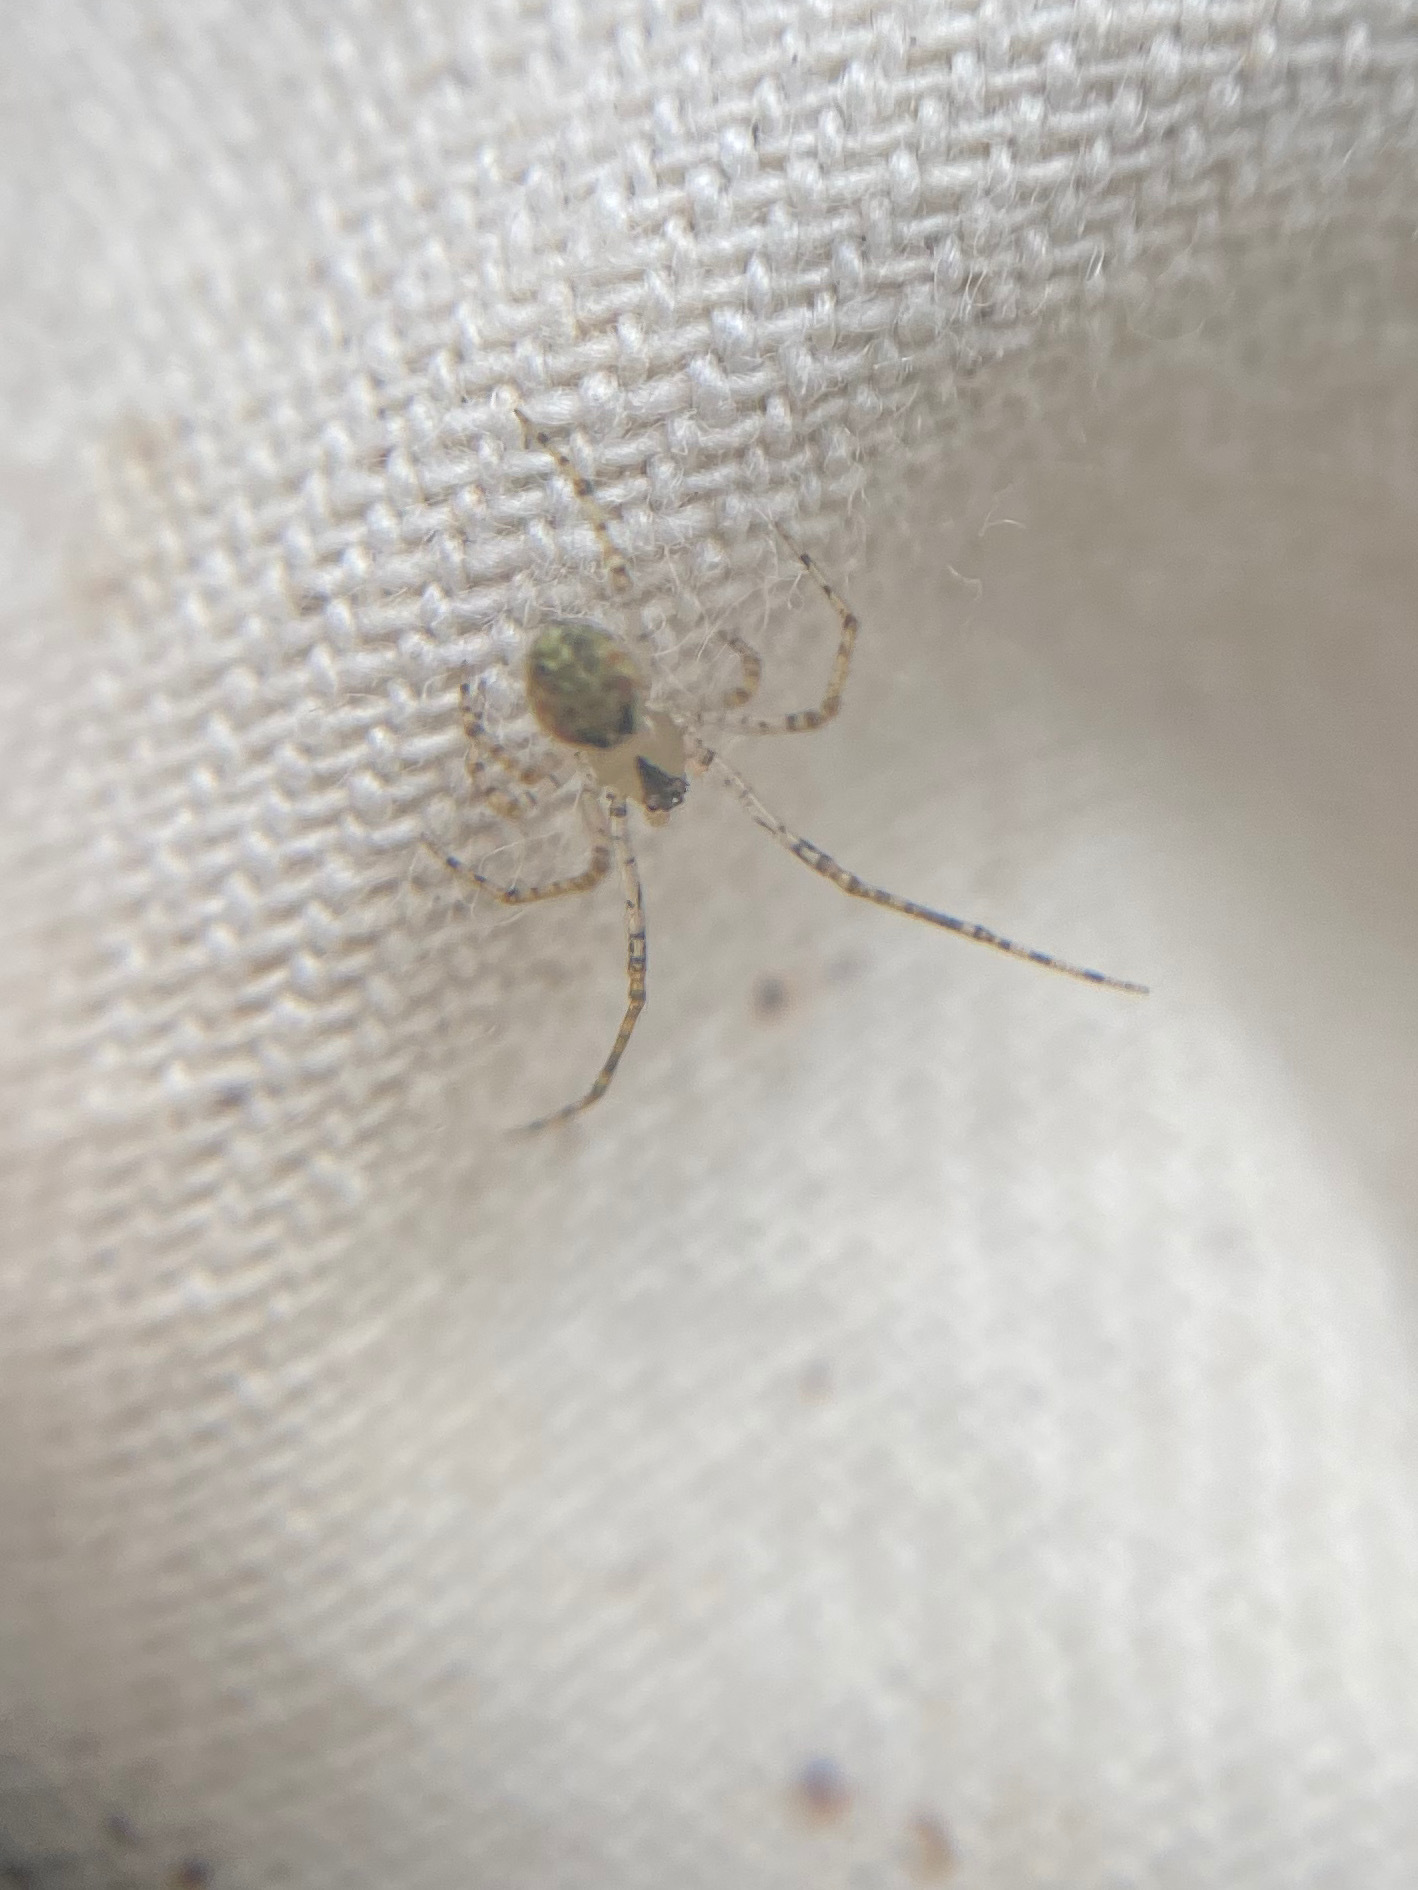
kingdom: Animalia
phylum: Arthropoda
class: Arachnida
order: Araneae
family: Theridiidae
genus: Platnickina
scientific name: Platnickina tincta
